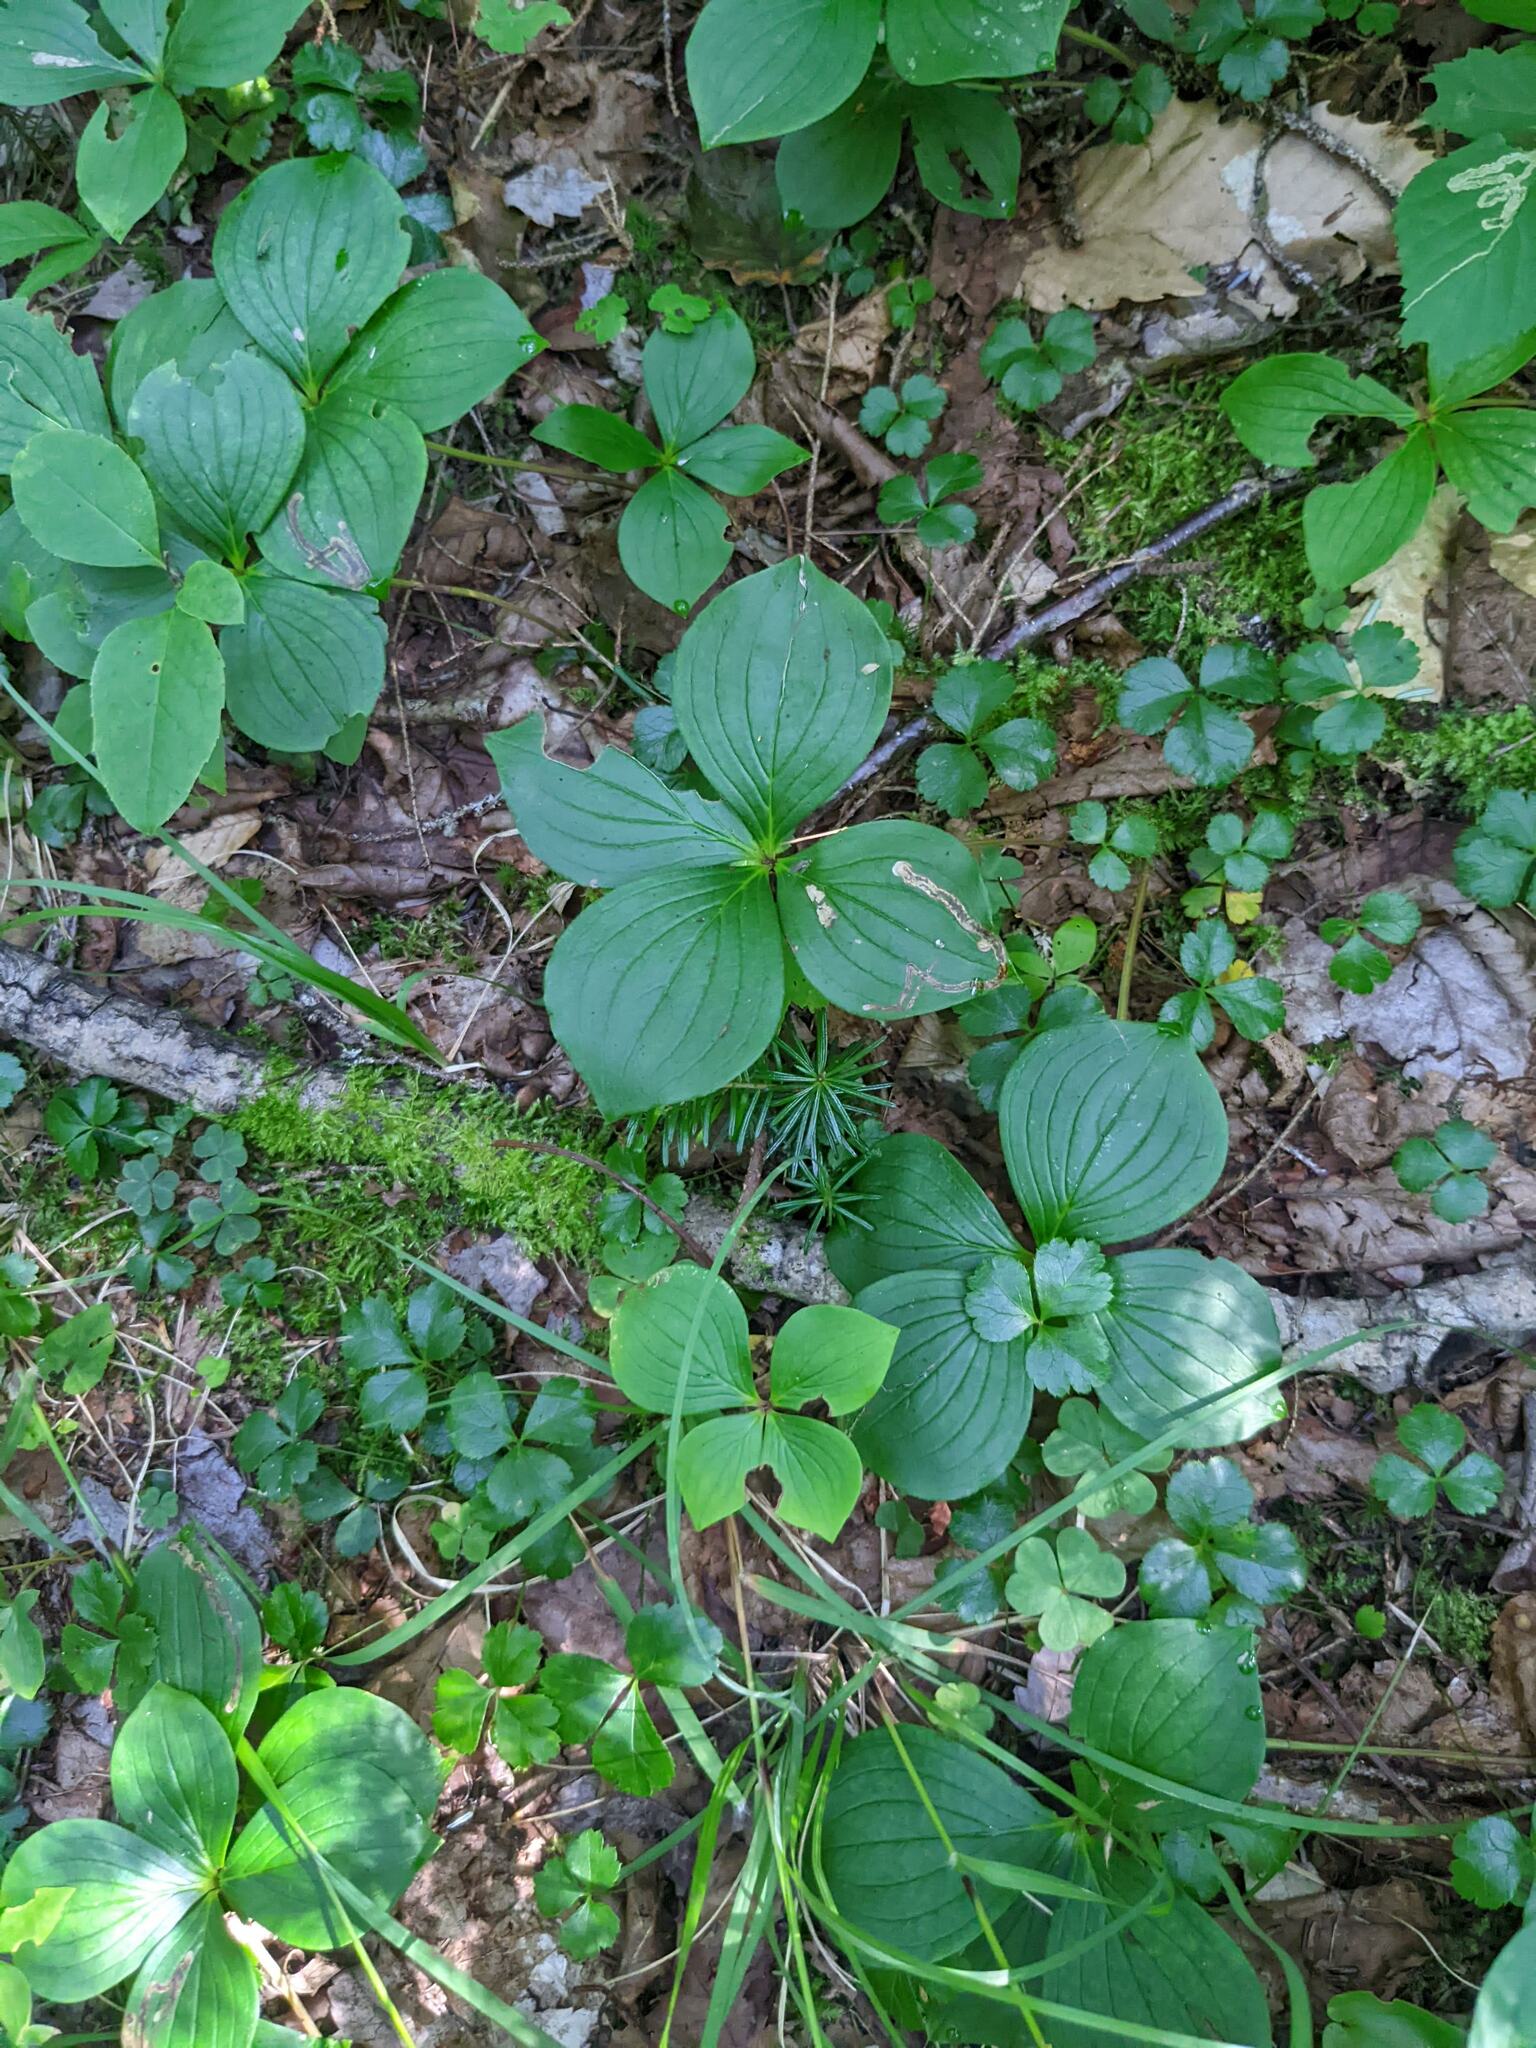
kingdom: Plantae
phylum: Tracheophyta
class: Magnoliopsida
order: Cornales
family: Cornaceae
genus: Cornus
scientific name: Cornus canadensis
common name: Creeping dogwood
